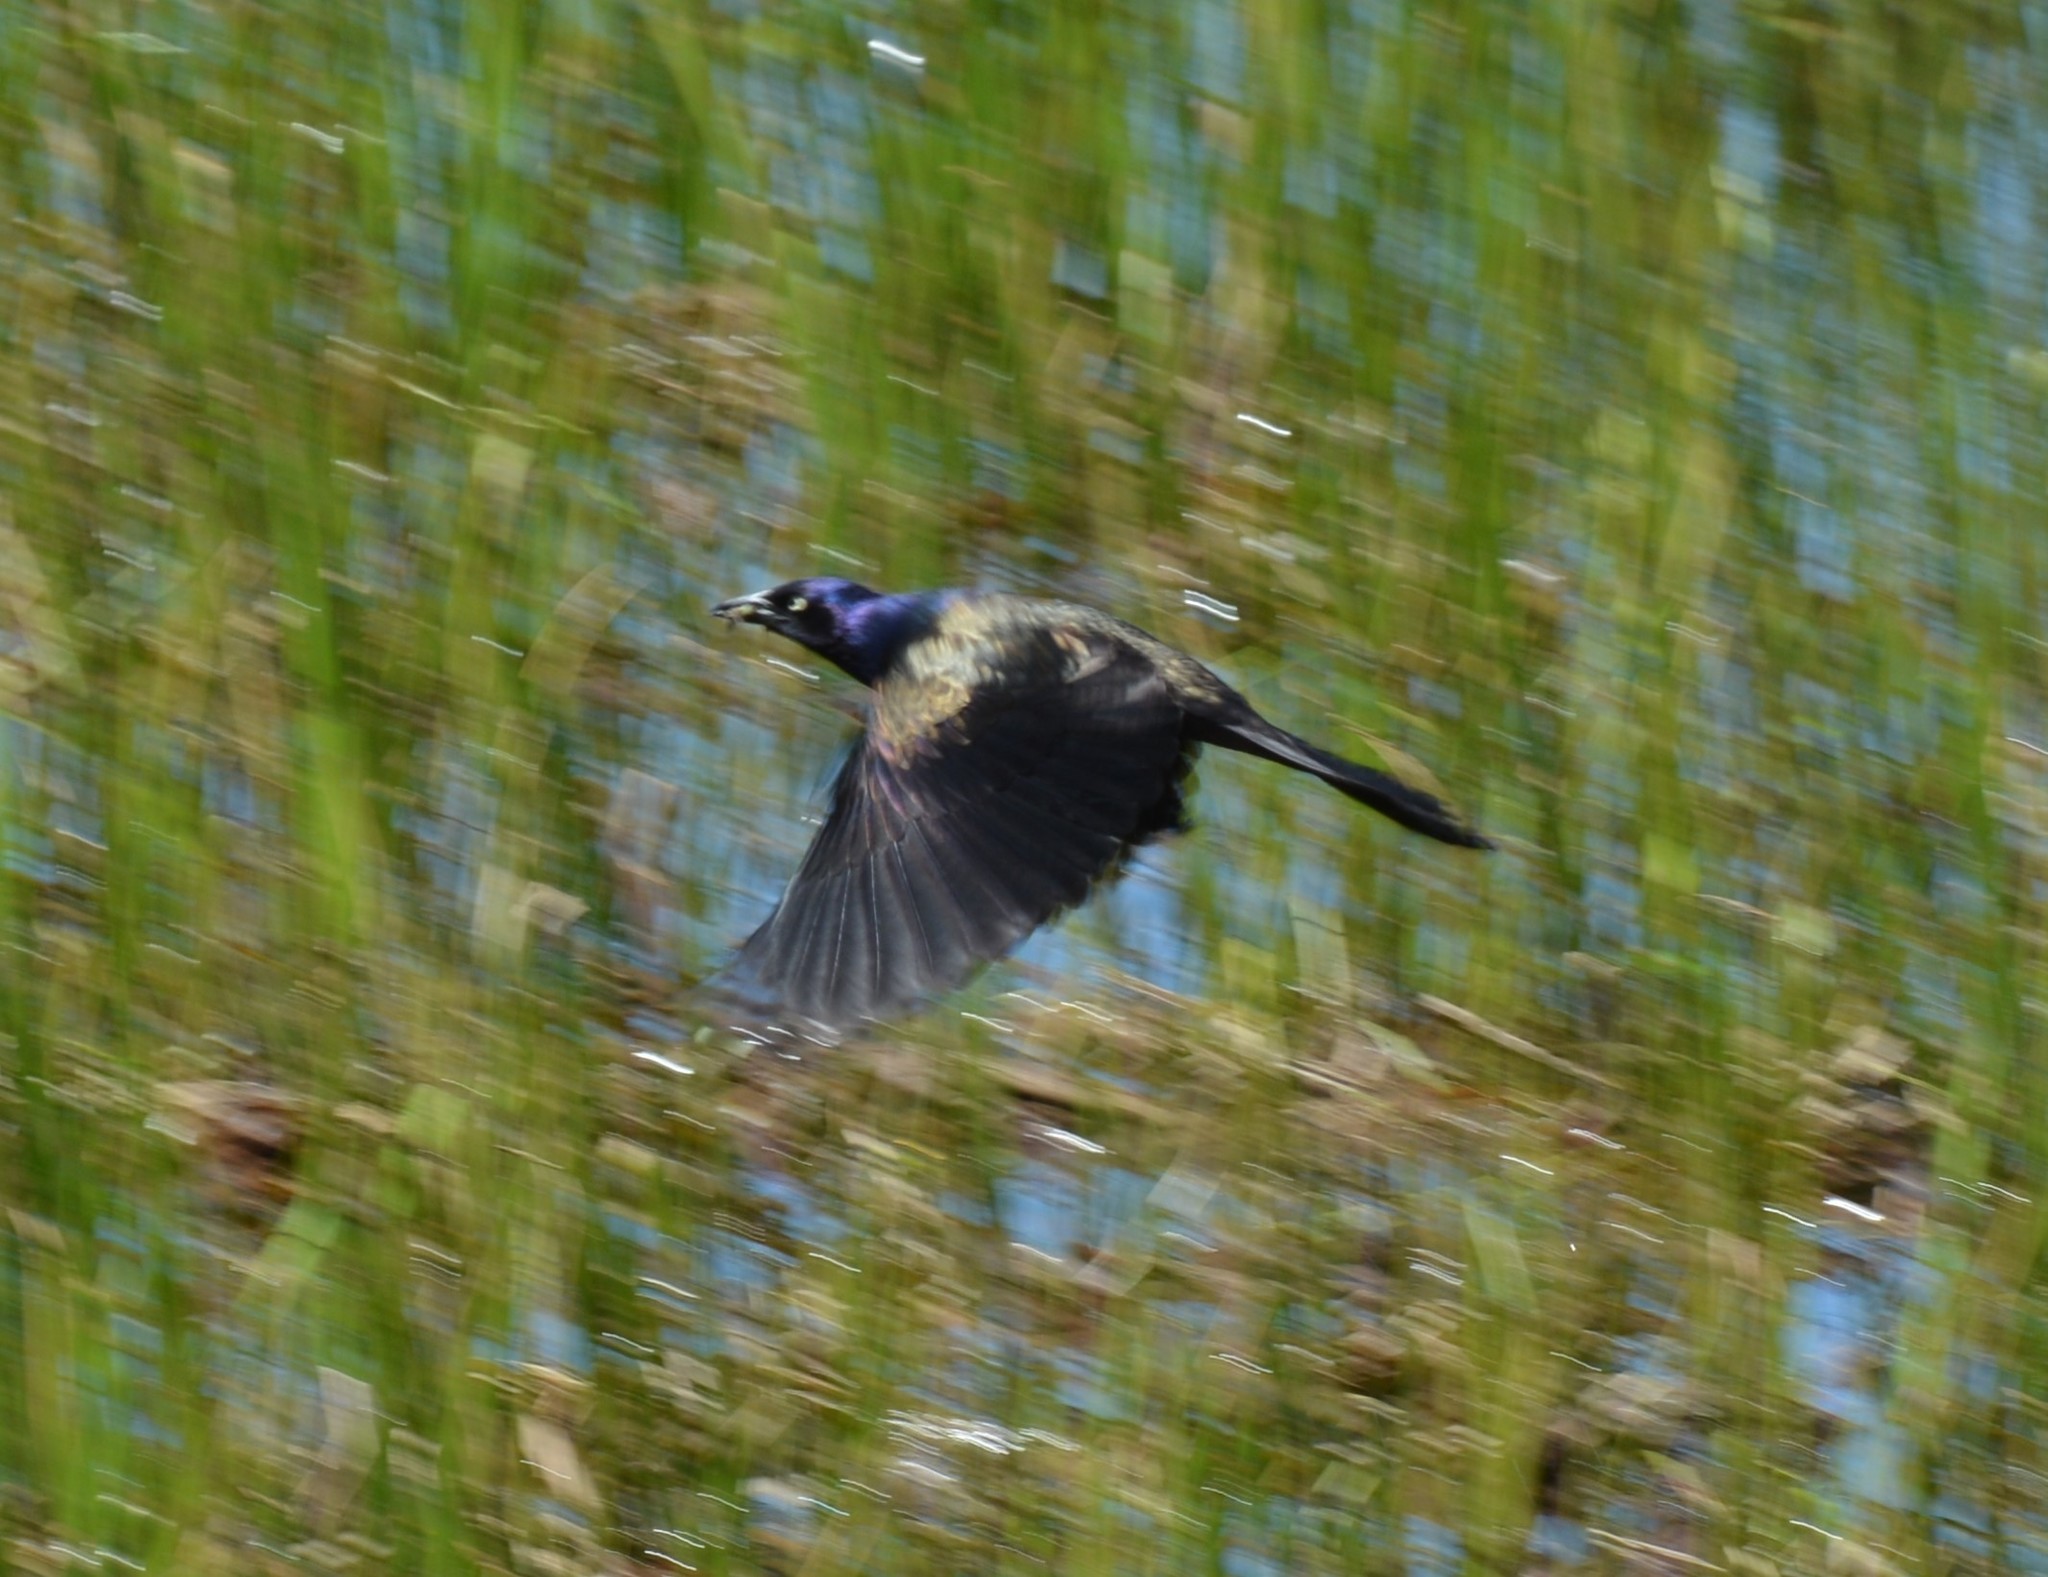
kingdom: Animalia
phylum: Chordata
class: Aves
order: Passeriformes
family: Icteridae
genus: Quiscalus
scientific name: Quiscalus quiscula
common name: Common grackle
